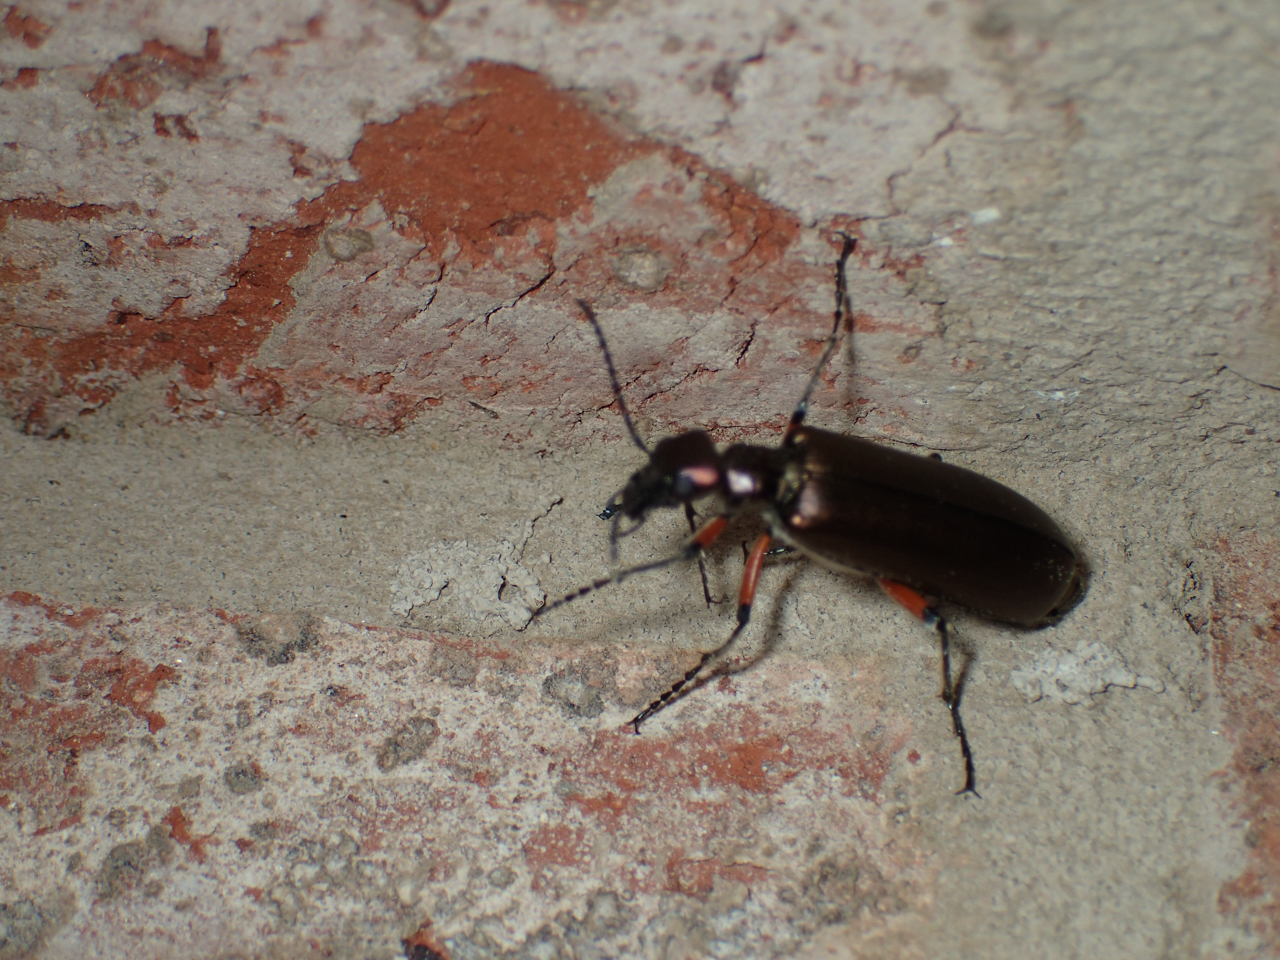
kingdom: Animalia
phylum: Arthropoda
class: Insecta
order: Coleoptera
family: Meloidae
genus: Lytta
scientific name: Lytta polita
